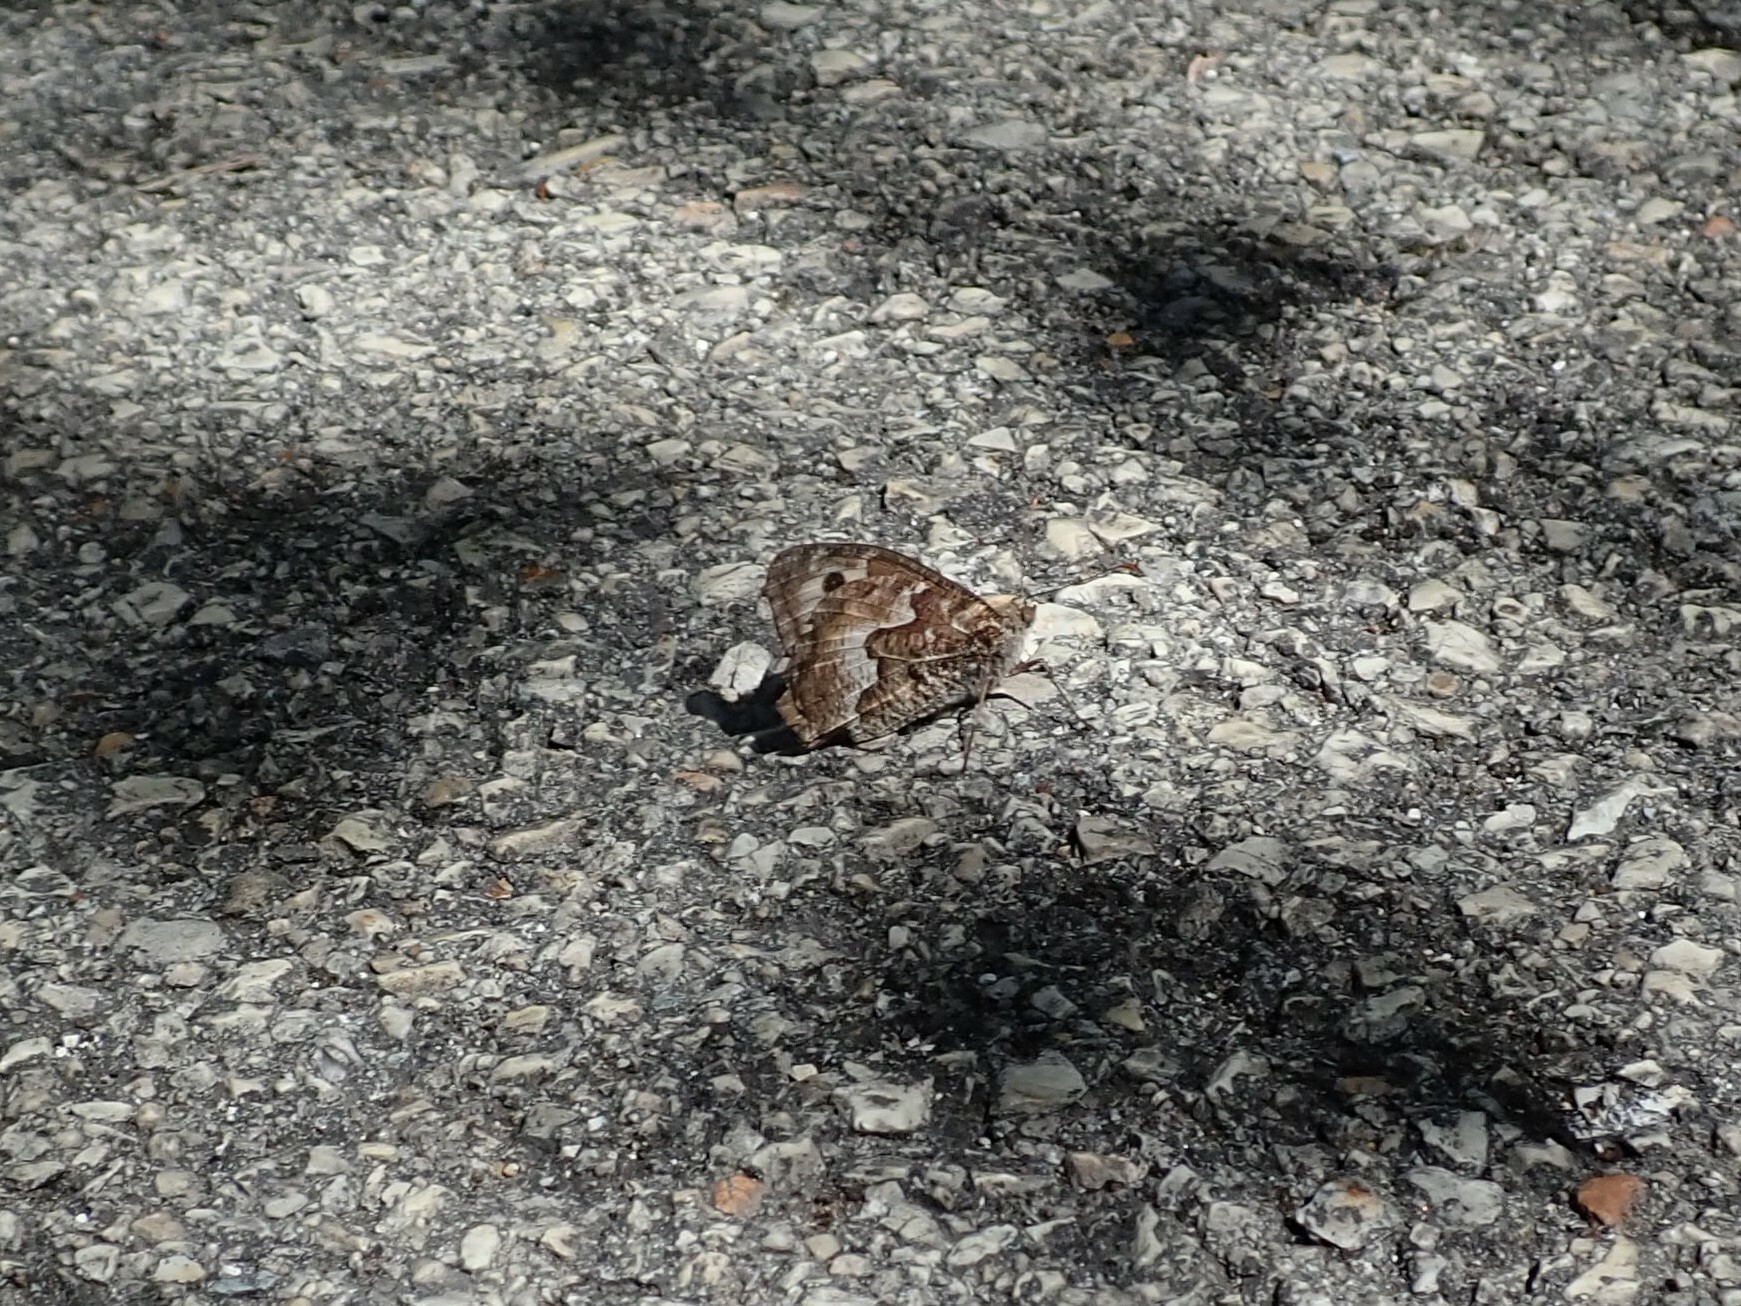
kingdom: Animalia
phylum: Arthropoda
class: Insecta
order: Lepidoptera
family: Nymphalidae
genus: Hipparchia
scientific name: Hipparchia semele
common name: Grayling
